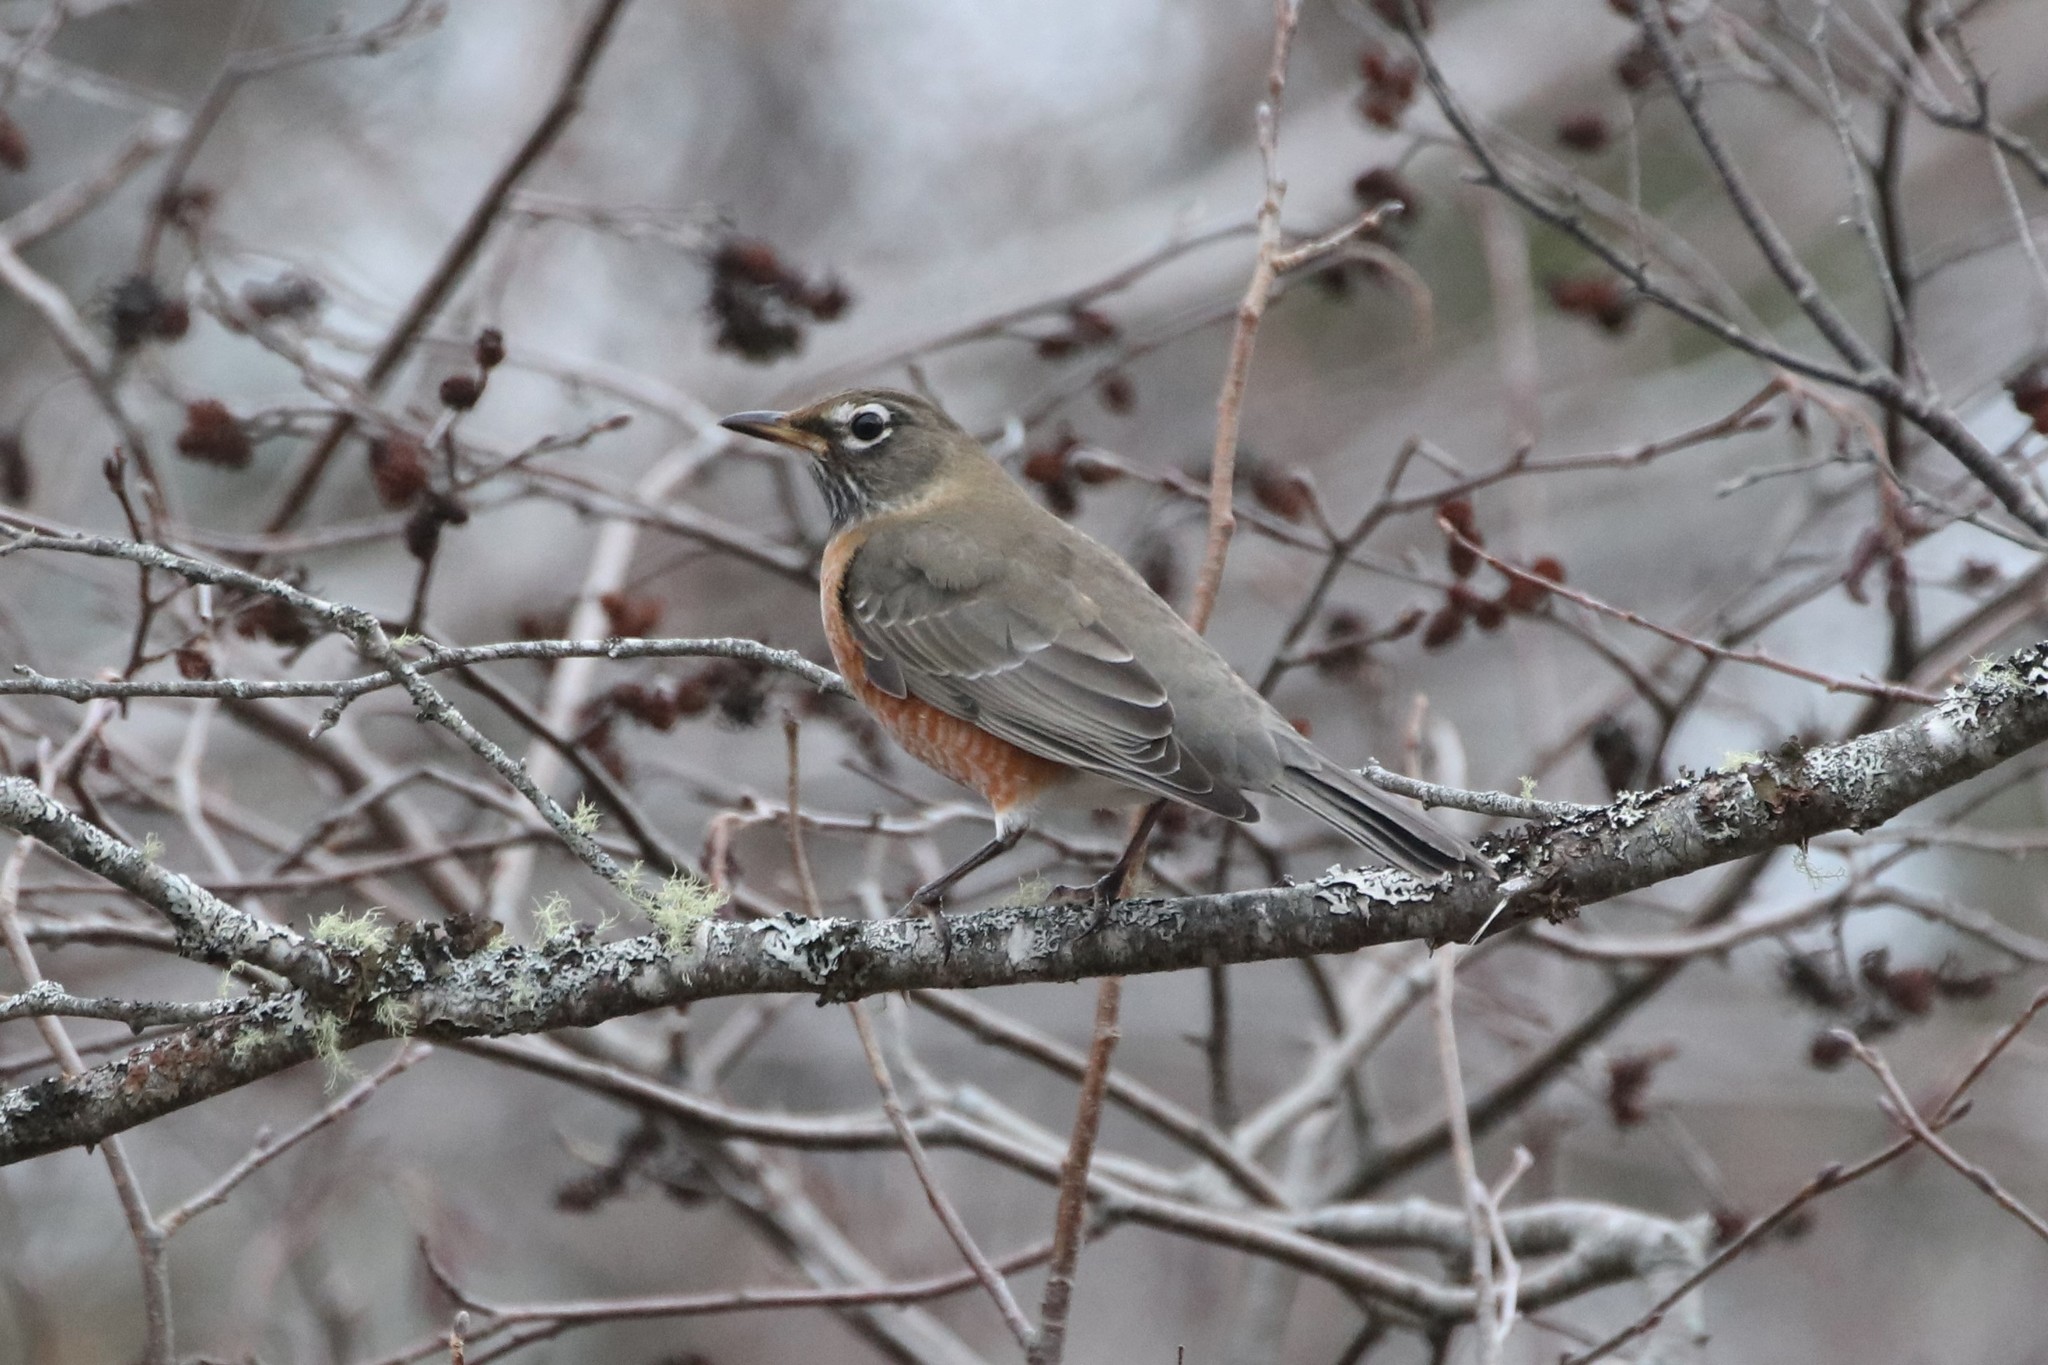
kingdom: Animalia
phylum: Chordata
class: Aves
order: Passeriformes
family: Turdidae
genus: Turdus
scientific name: Turdus migratorius
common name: American robin
